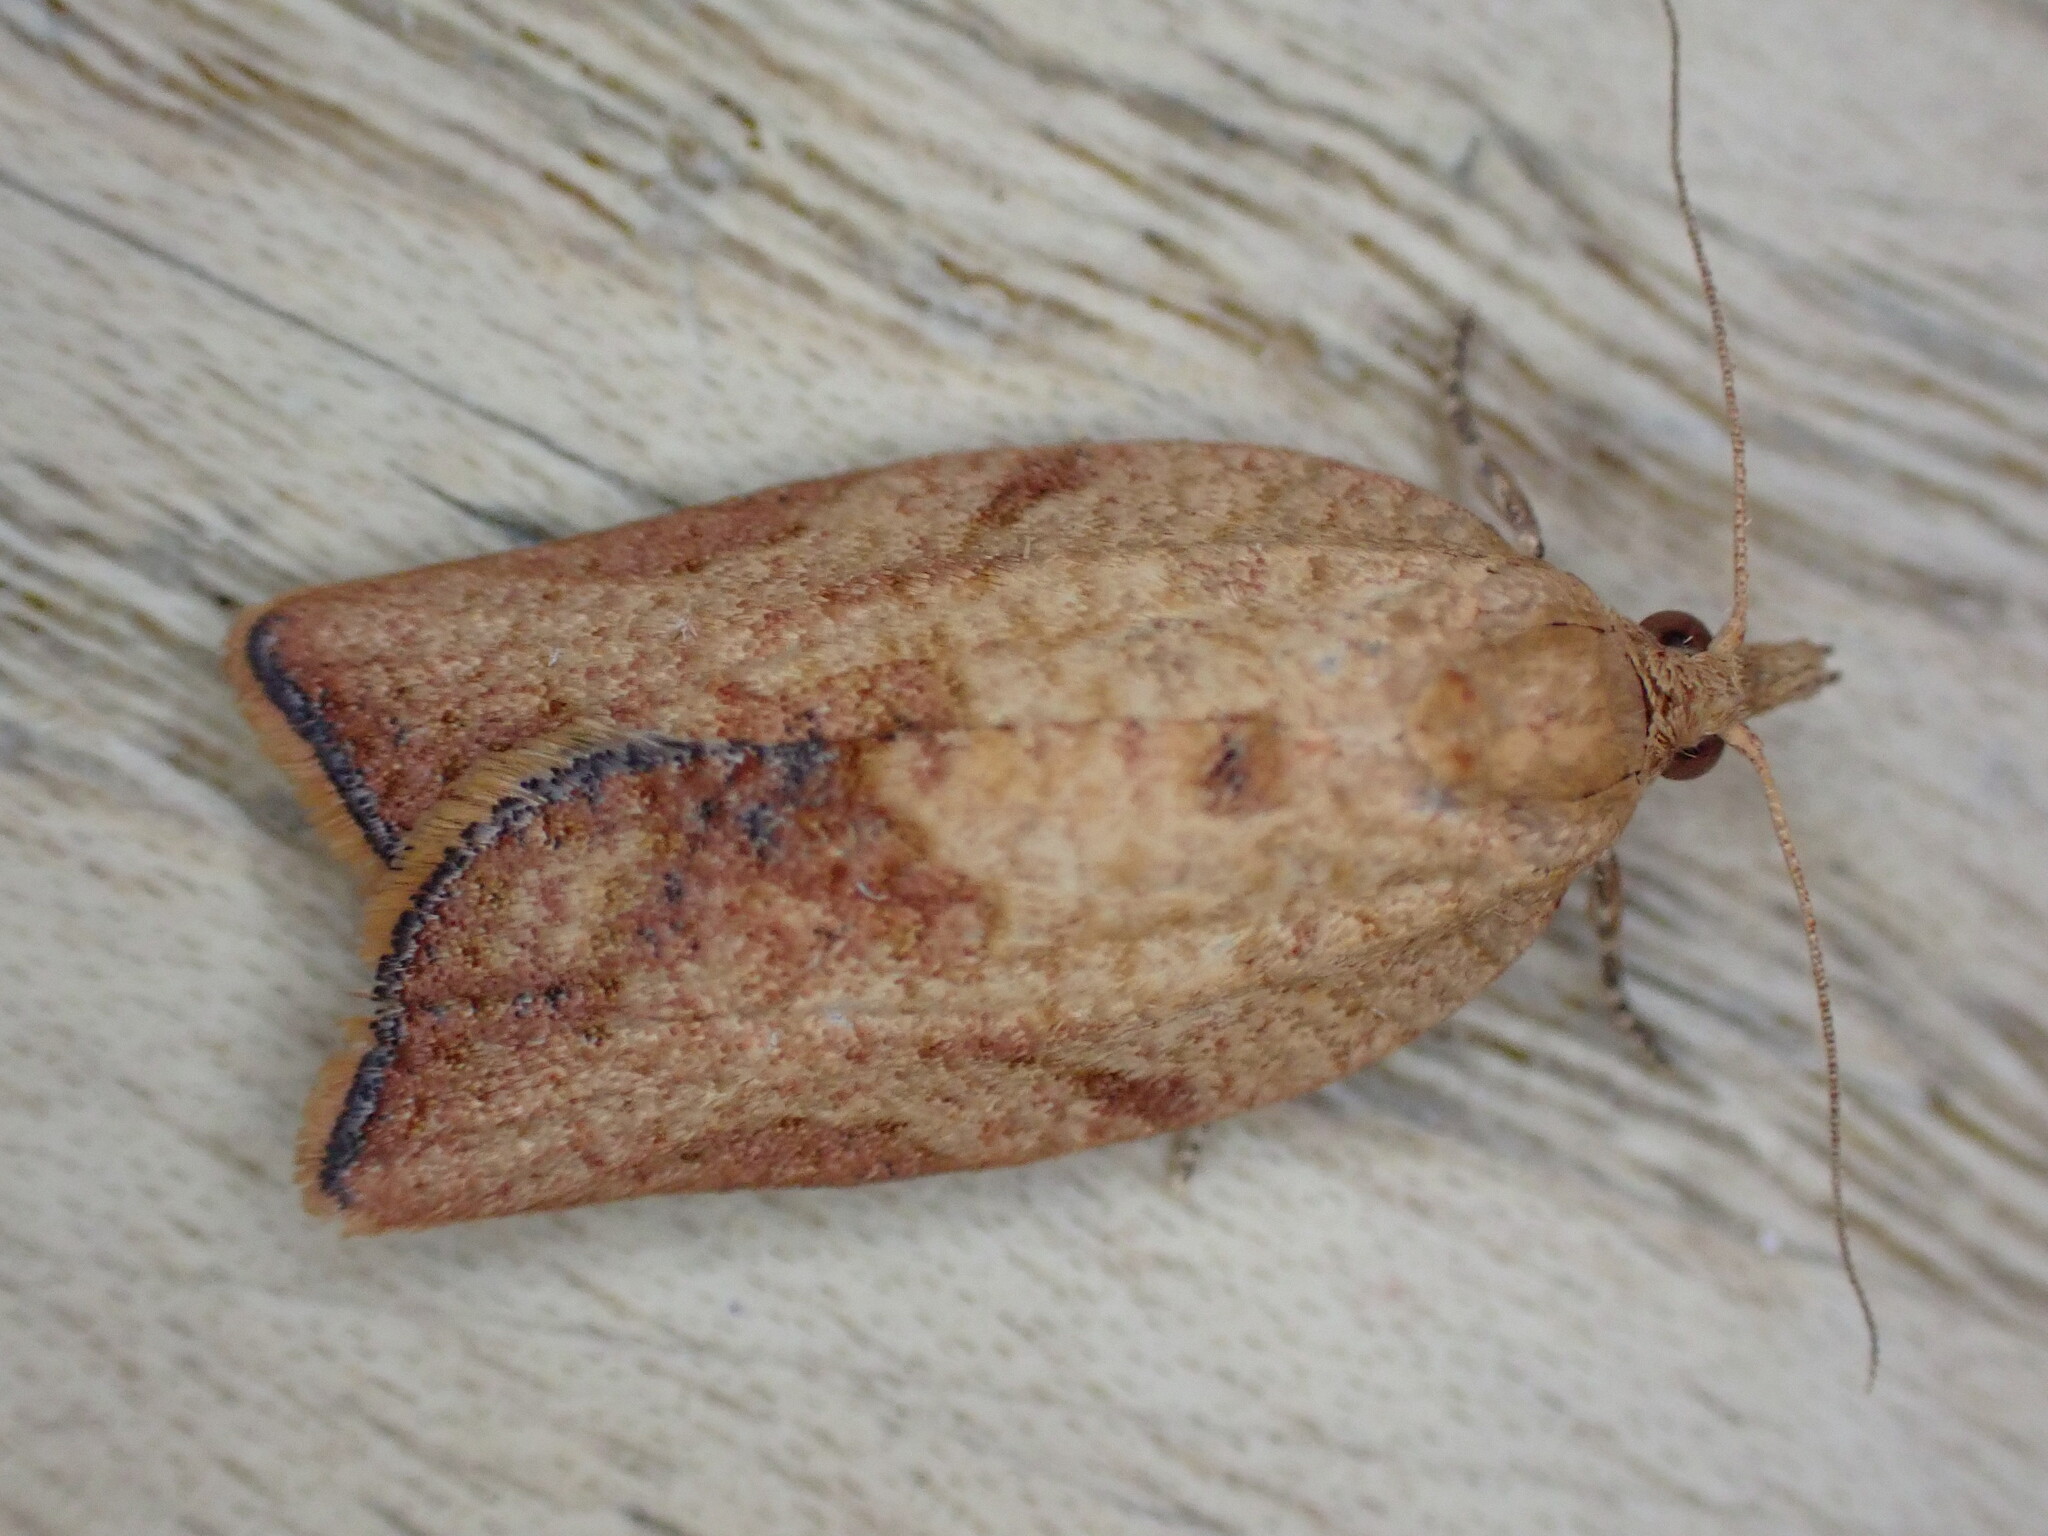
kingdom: Animalia
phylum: Arthropoda
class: Insecta
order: Lepidoptera
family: Tortricidae
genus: Epiphyas
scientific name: Epiphyas postvittana
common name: Light brown apple moth
